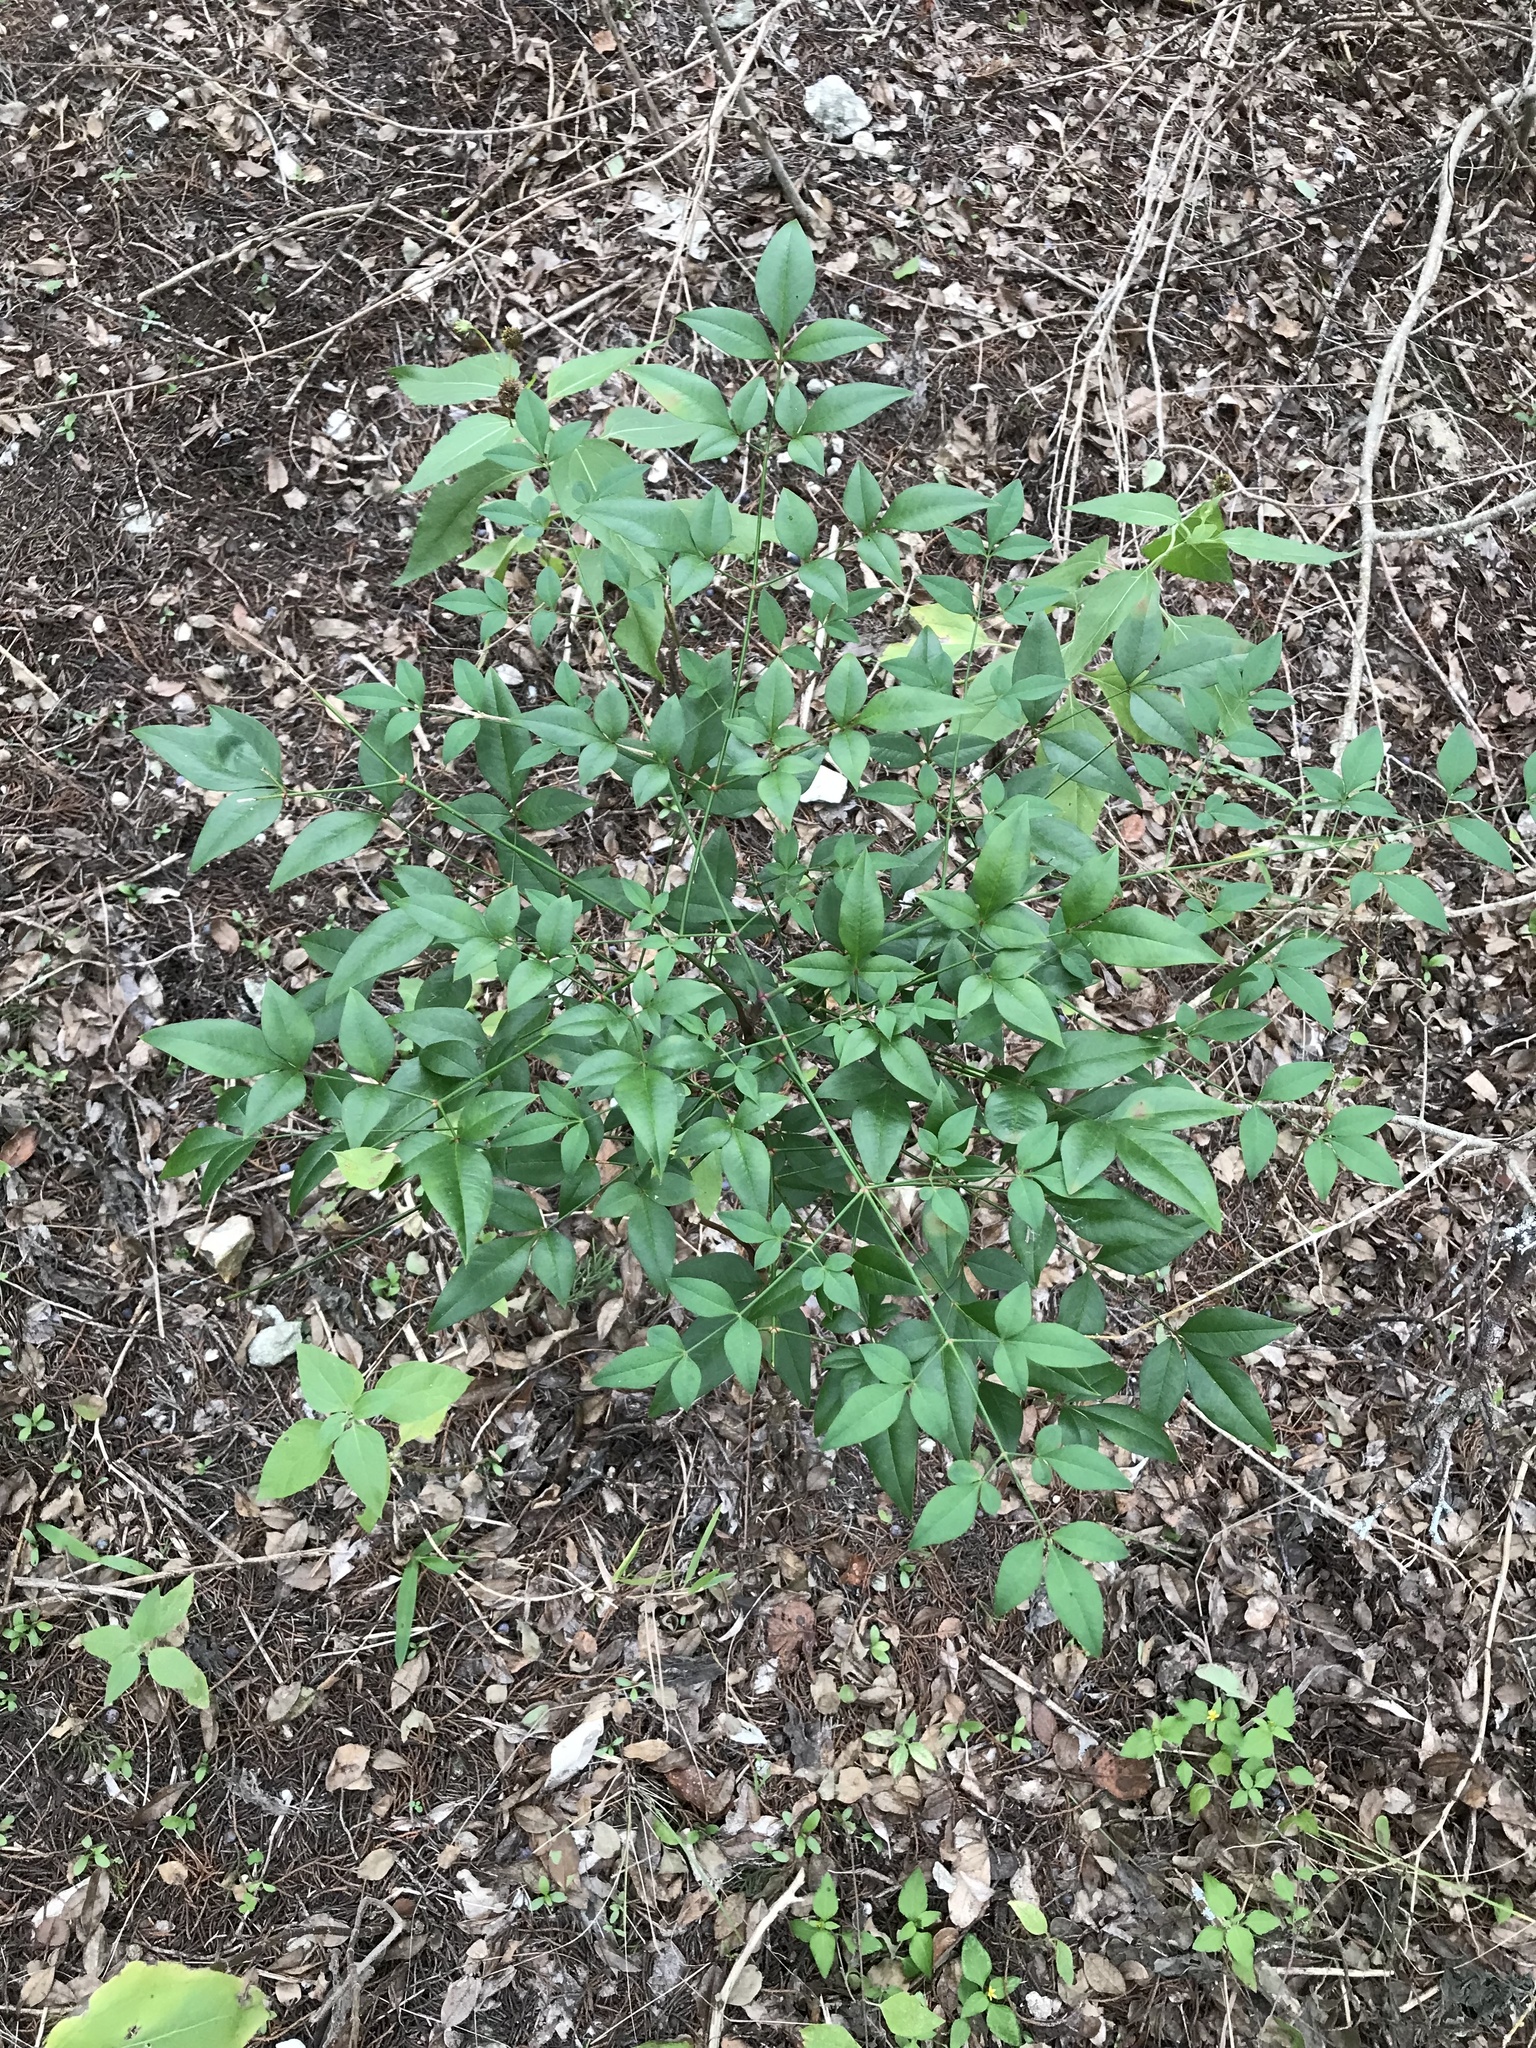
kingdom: Plantae
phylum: Tracheophyta
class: Magnoliopsida
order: Ranunculales
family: Berberidaceae
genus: Nandina
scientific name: Nandina domestica
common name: Sacred bamboo
